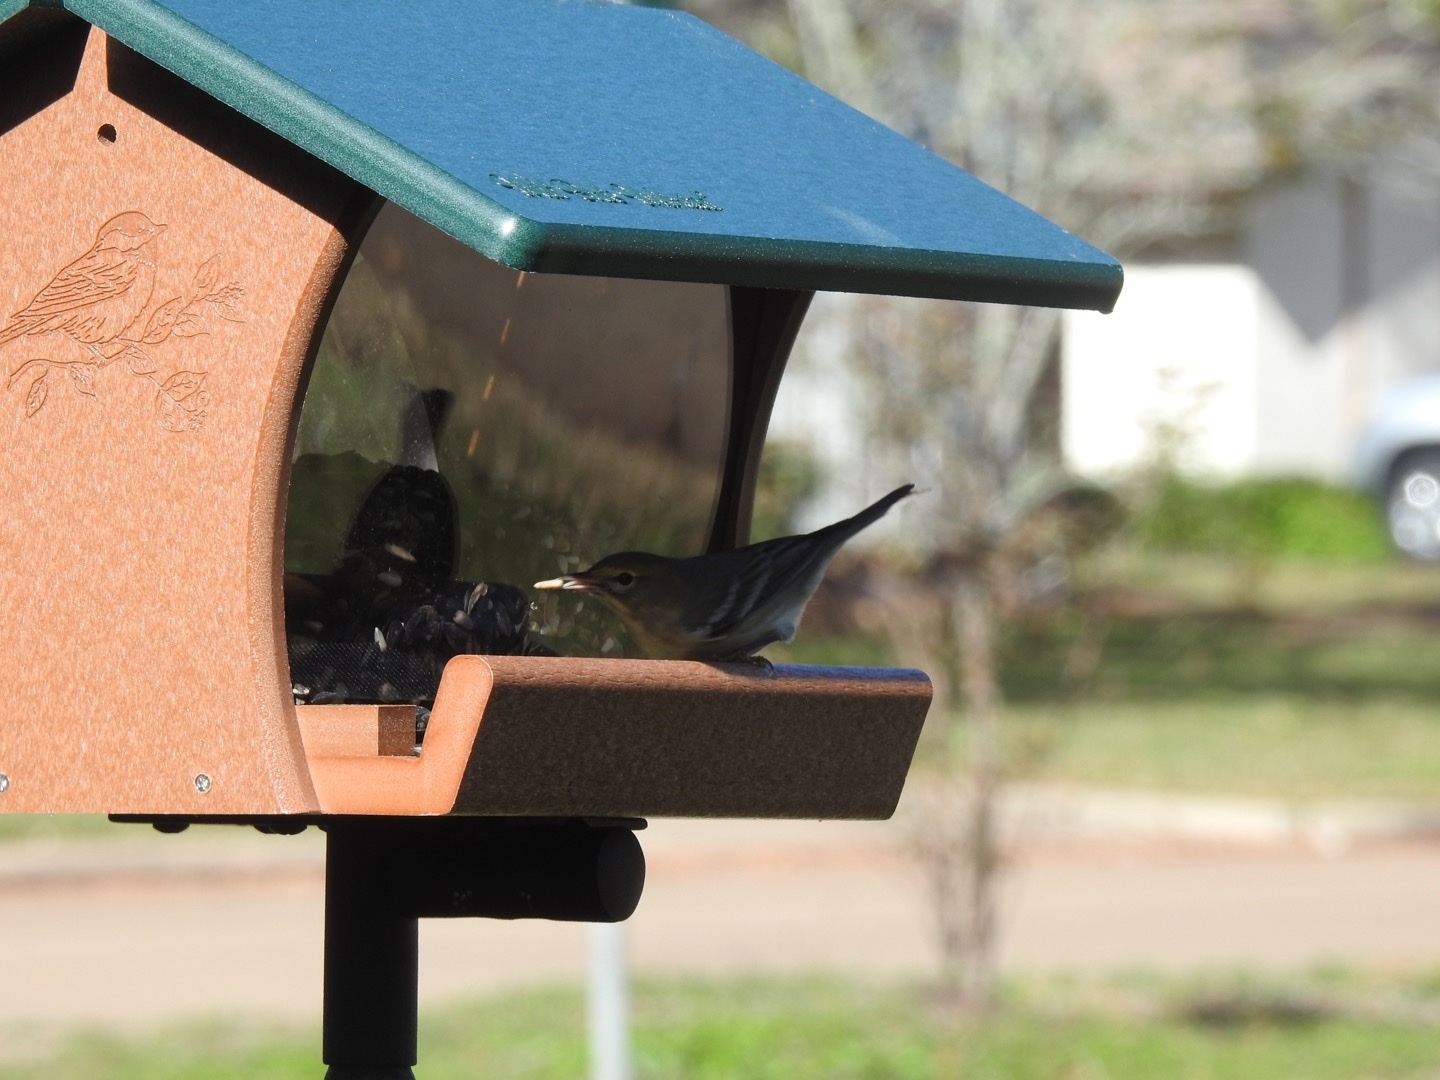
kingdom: Animalia
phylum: Chordata
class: Aves
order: Passeriformes
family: Parulidae
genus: Setophaga
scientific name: Setophaga pinus
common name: Pine warbler
